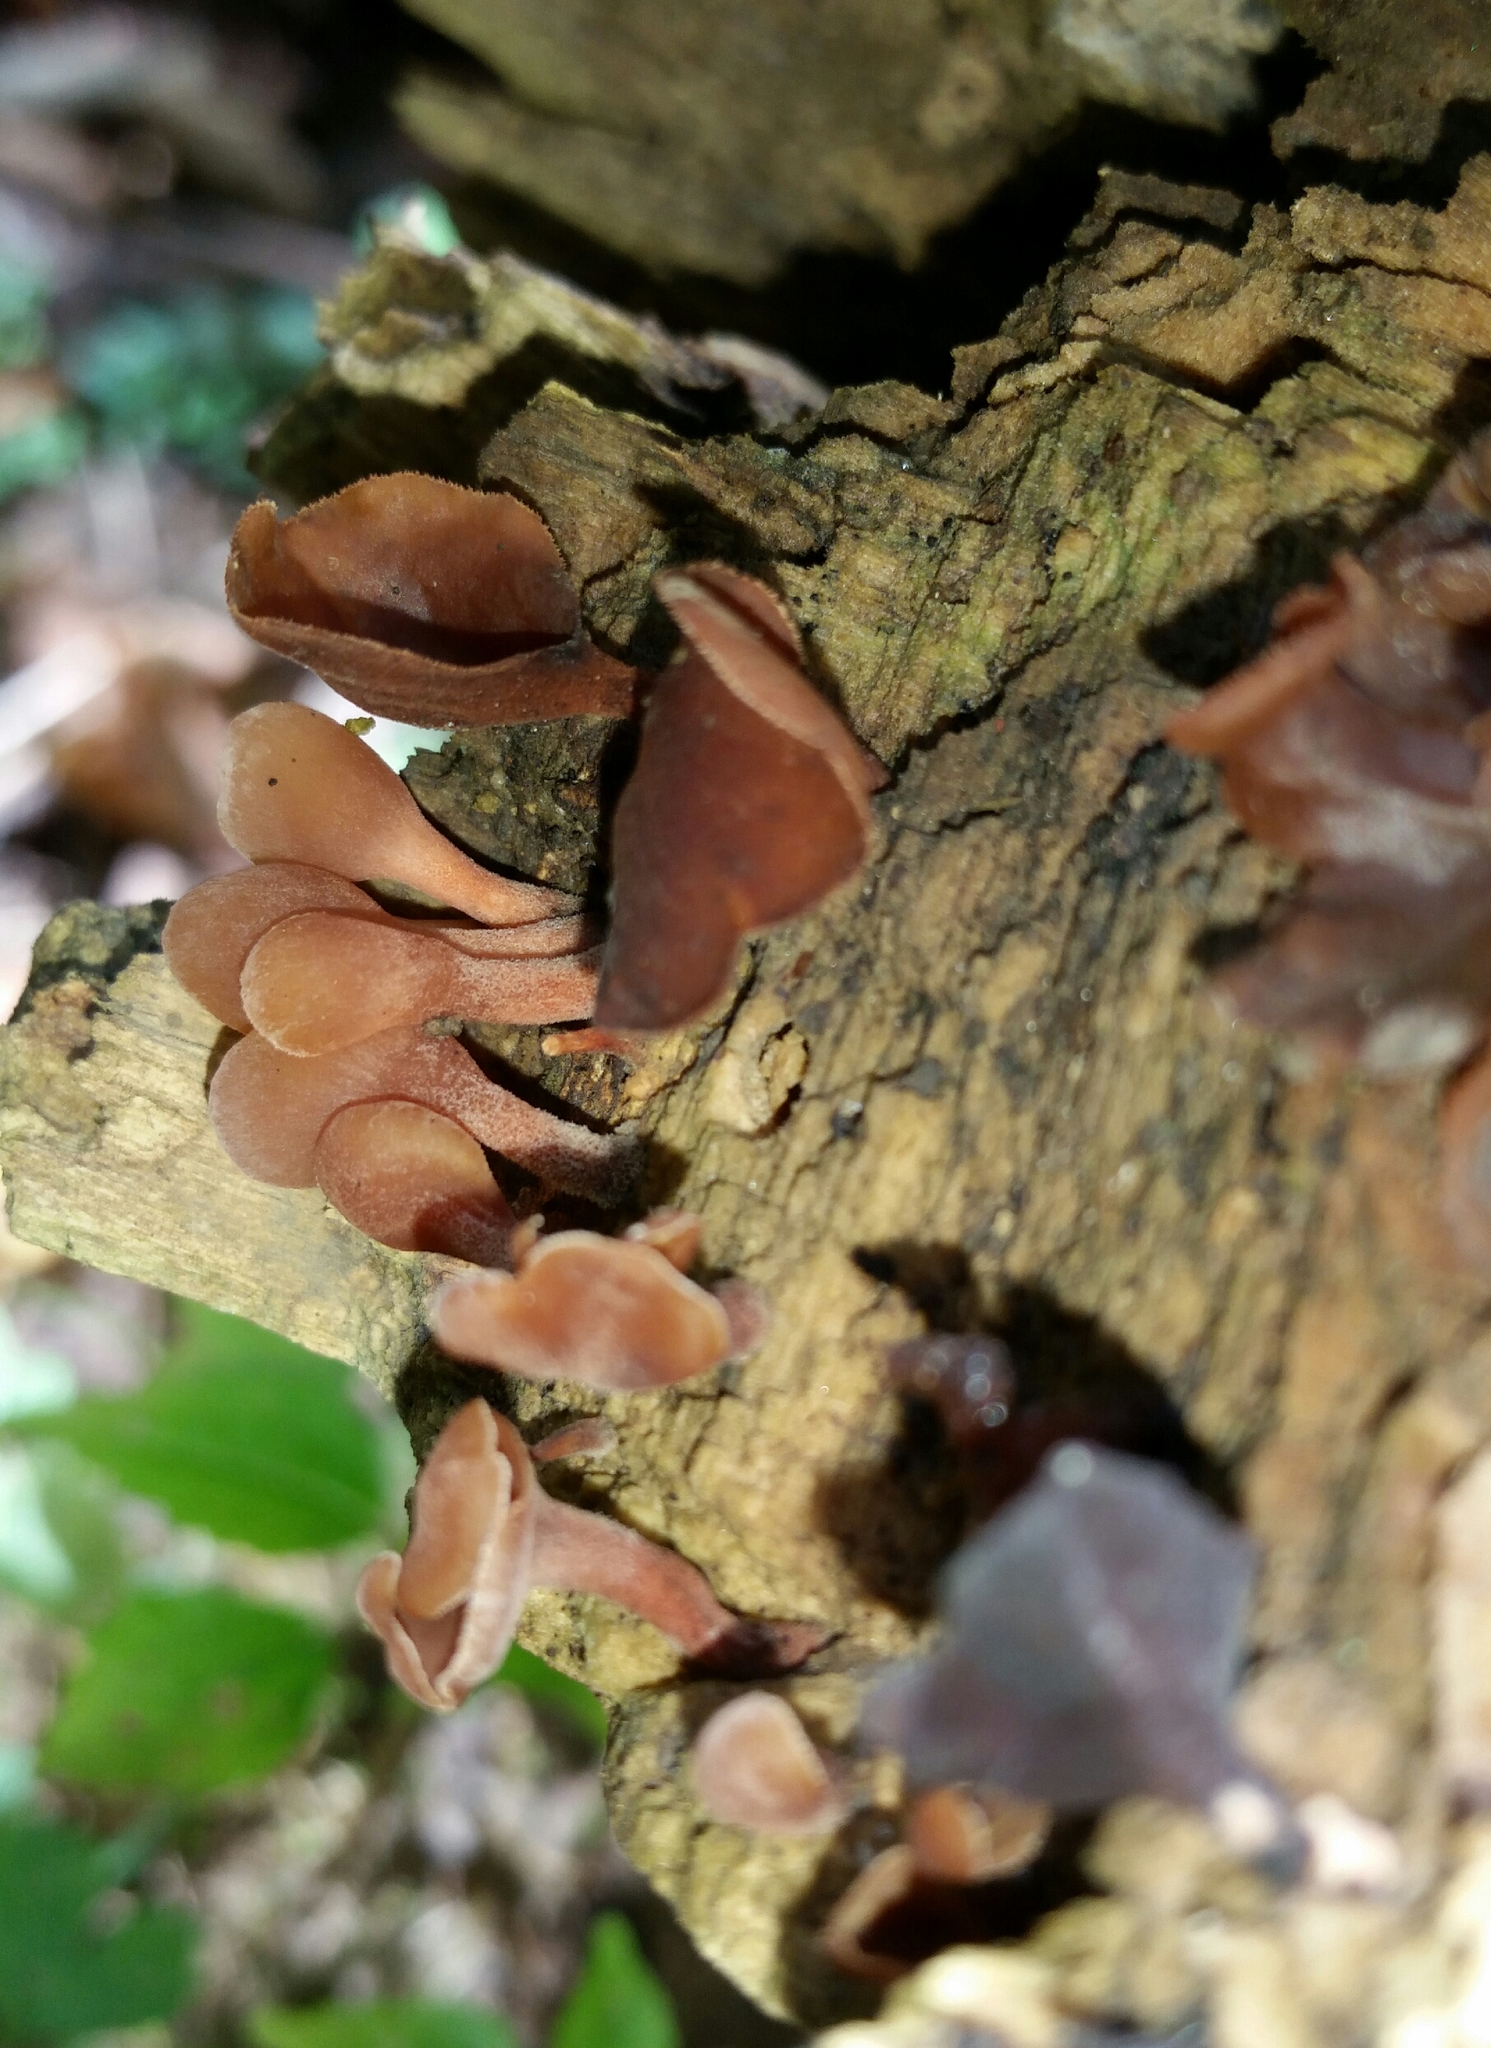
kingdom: Fungi
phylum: Basidiomycota
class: Dacrymycetes
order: Dacrymycetales
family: Dacrymycetaceae
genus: Dacryopinax
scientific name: Dacryopinax elegans
